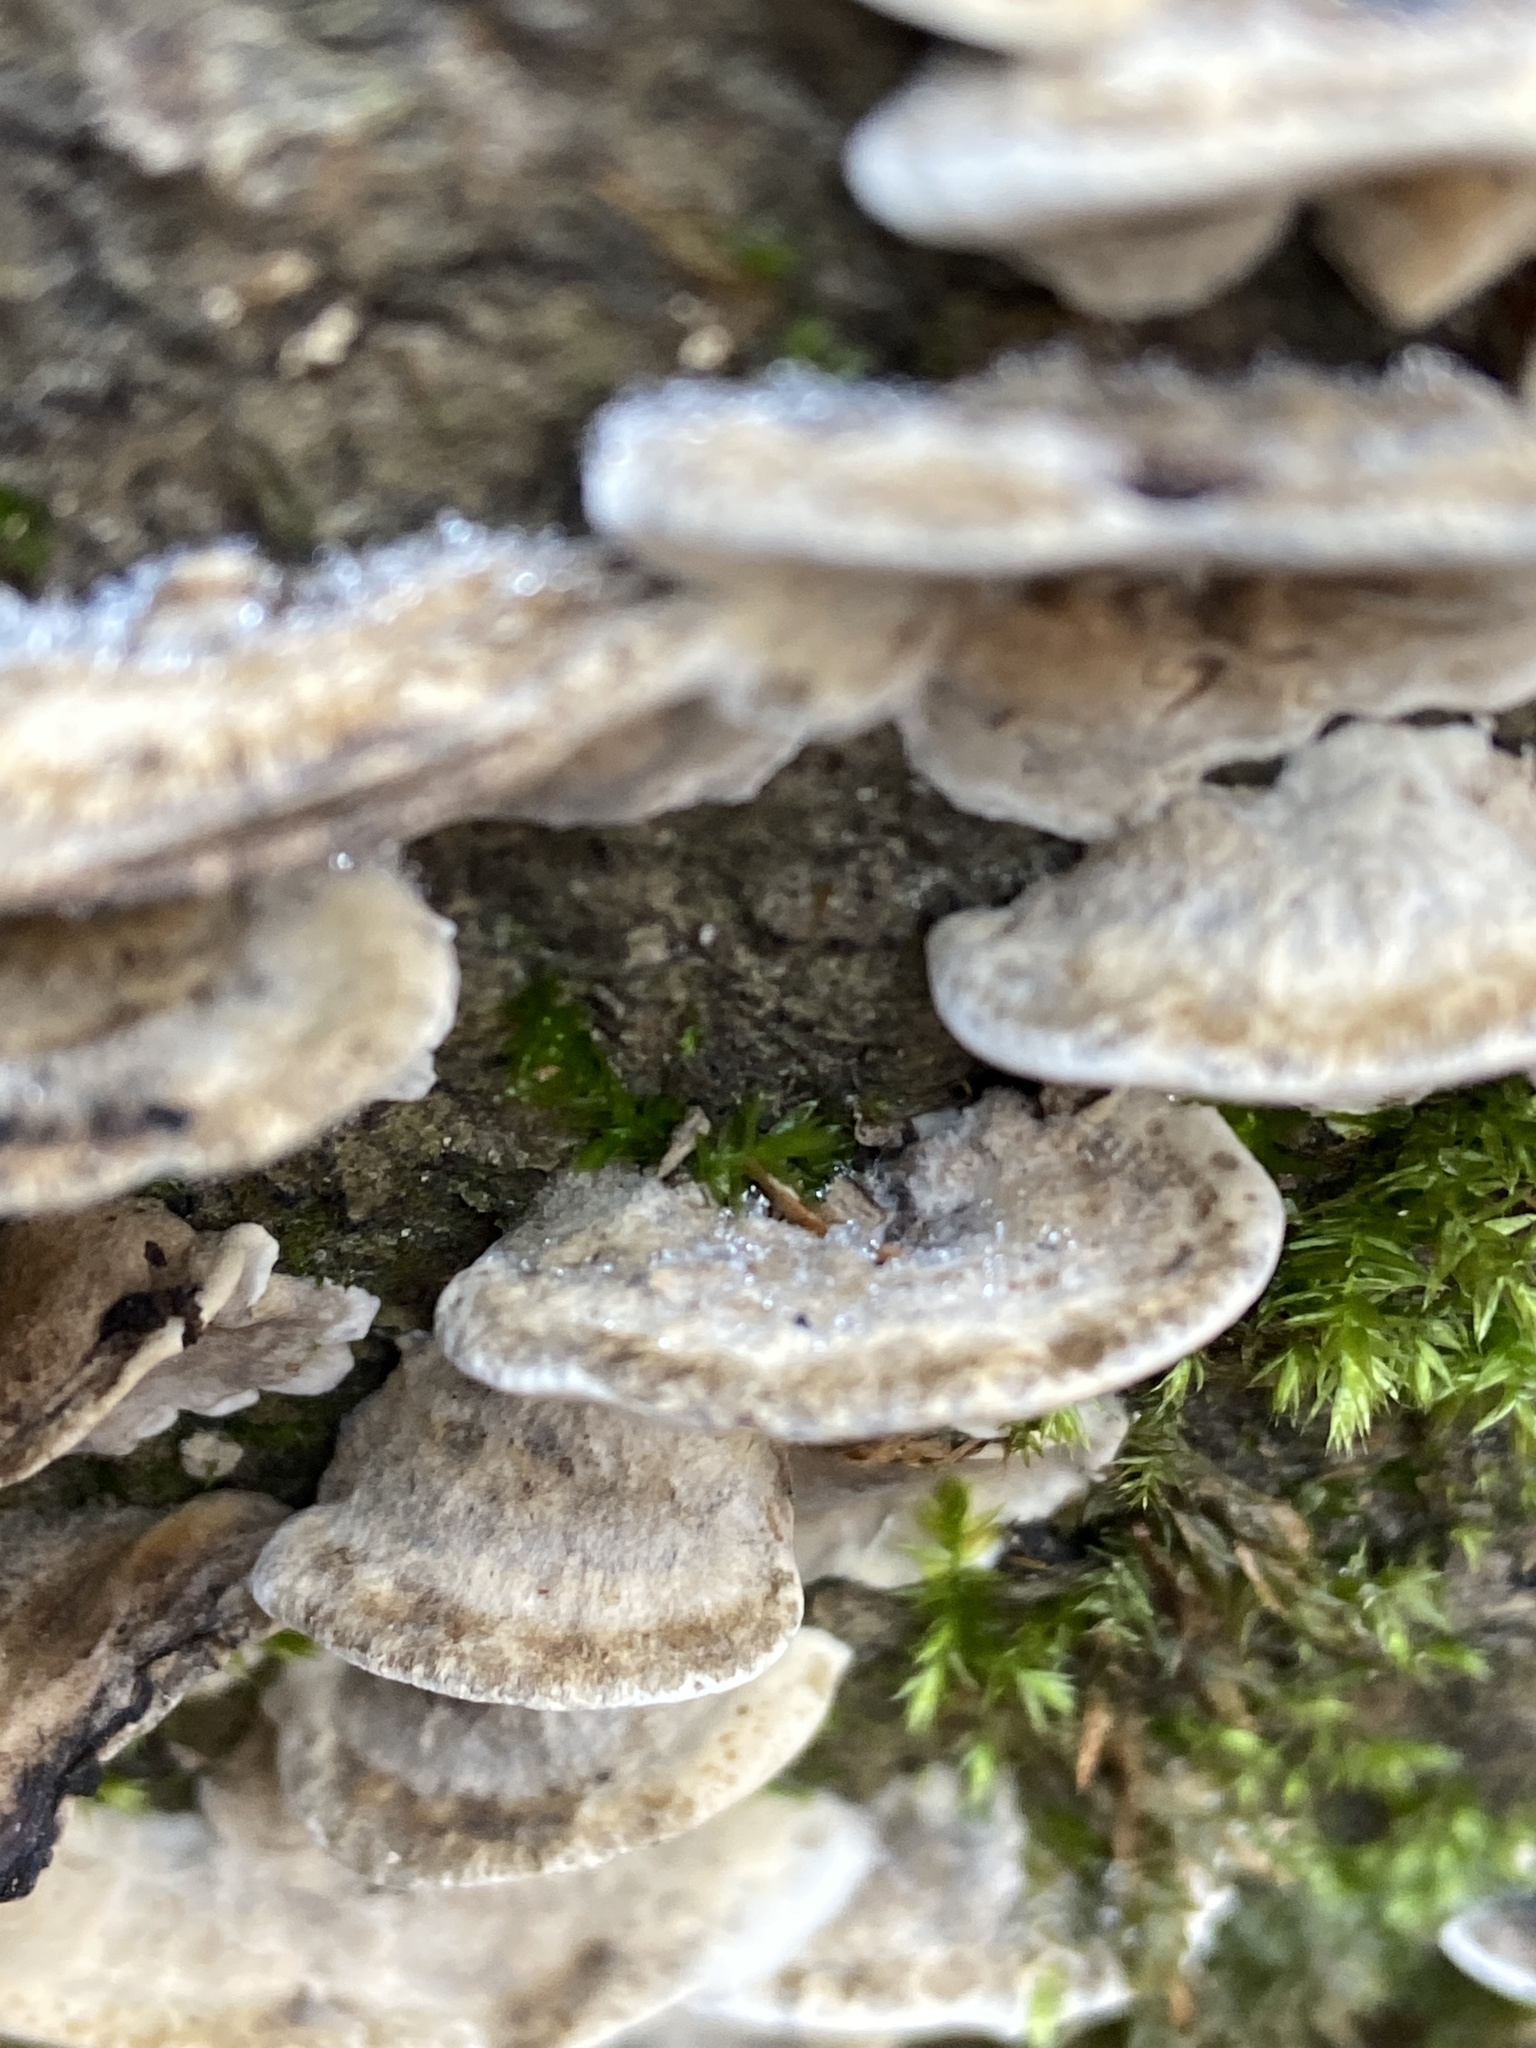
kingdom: Fungi
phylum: Basidiomycota
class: Agaricomycetes
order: Polyporales
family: Phanerochaetaceae
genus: Bjerkandera
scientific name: Bjerkandera adusta
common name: Smoky bracket
